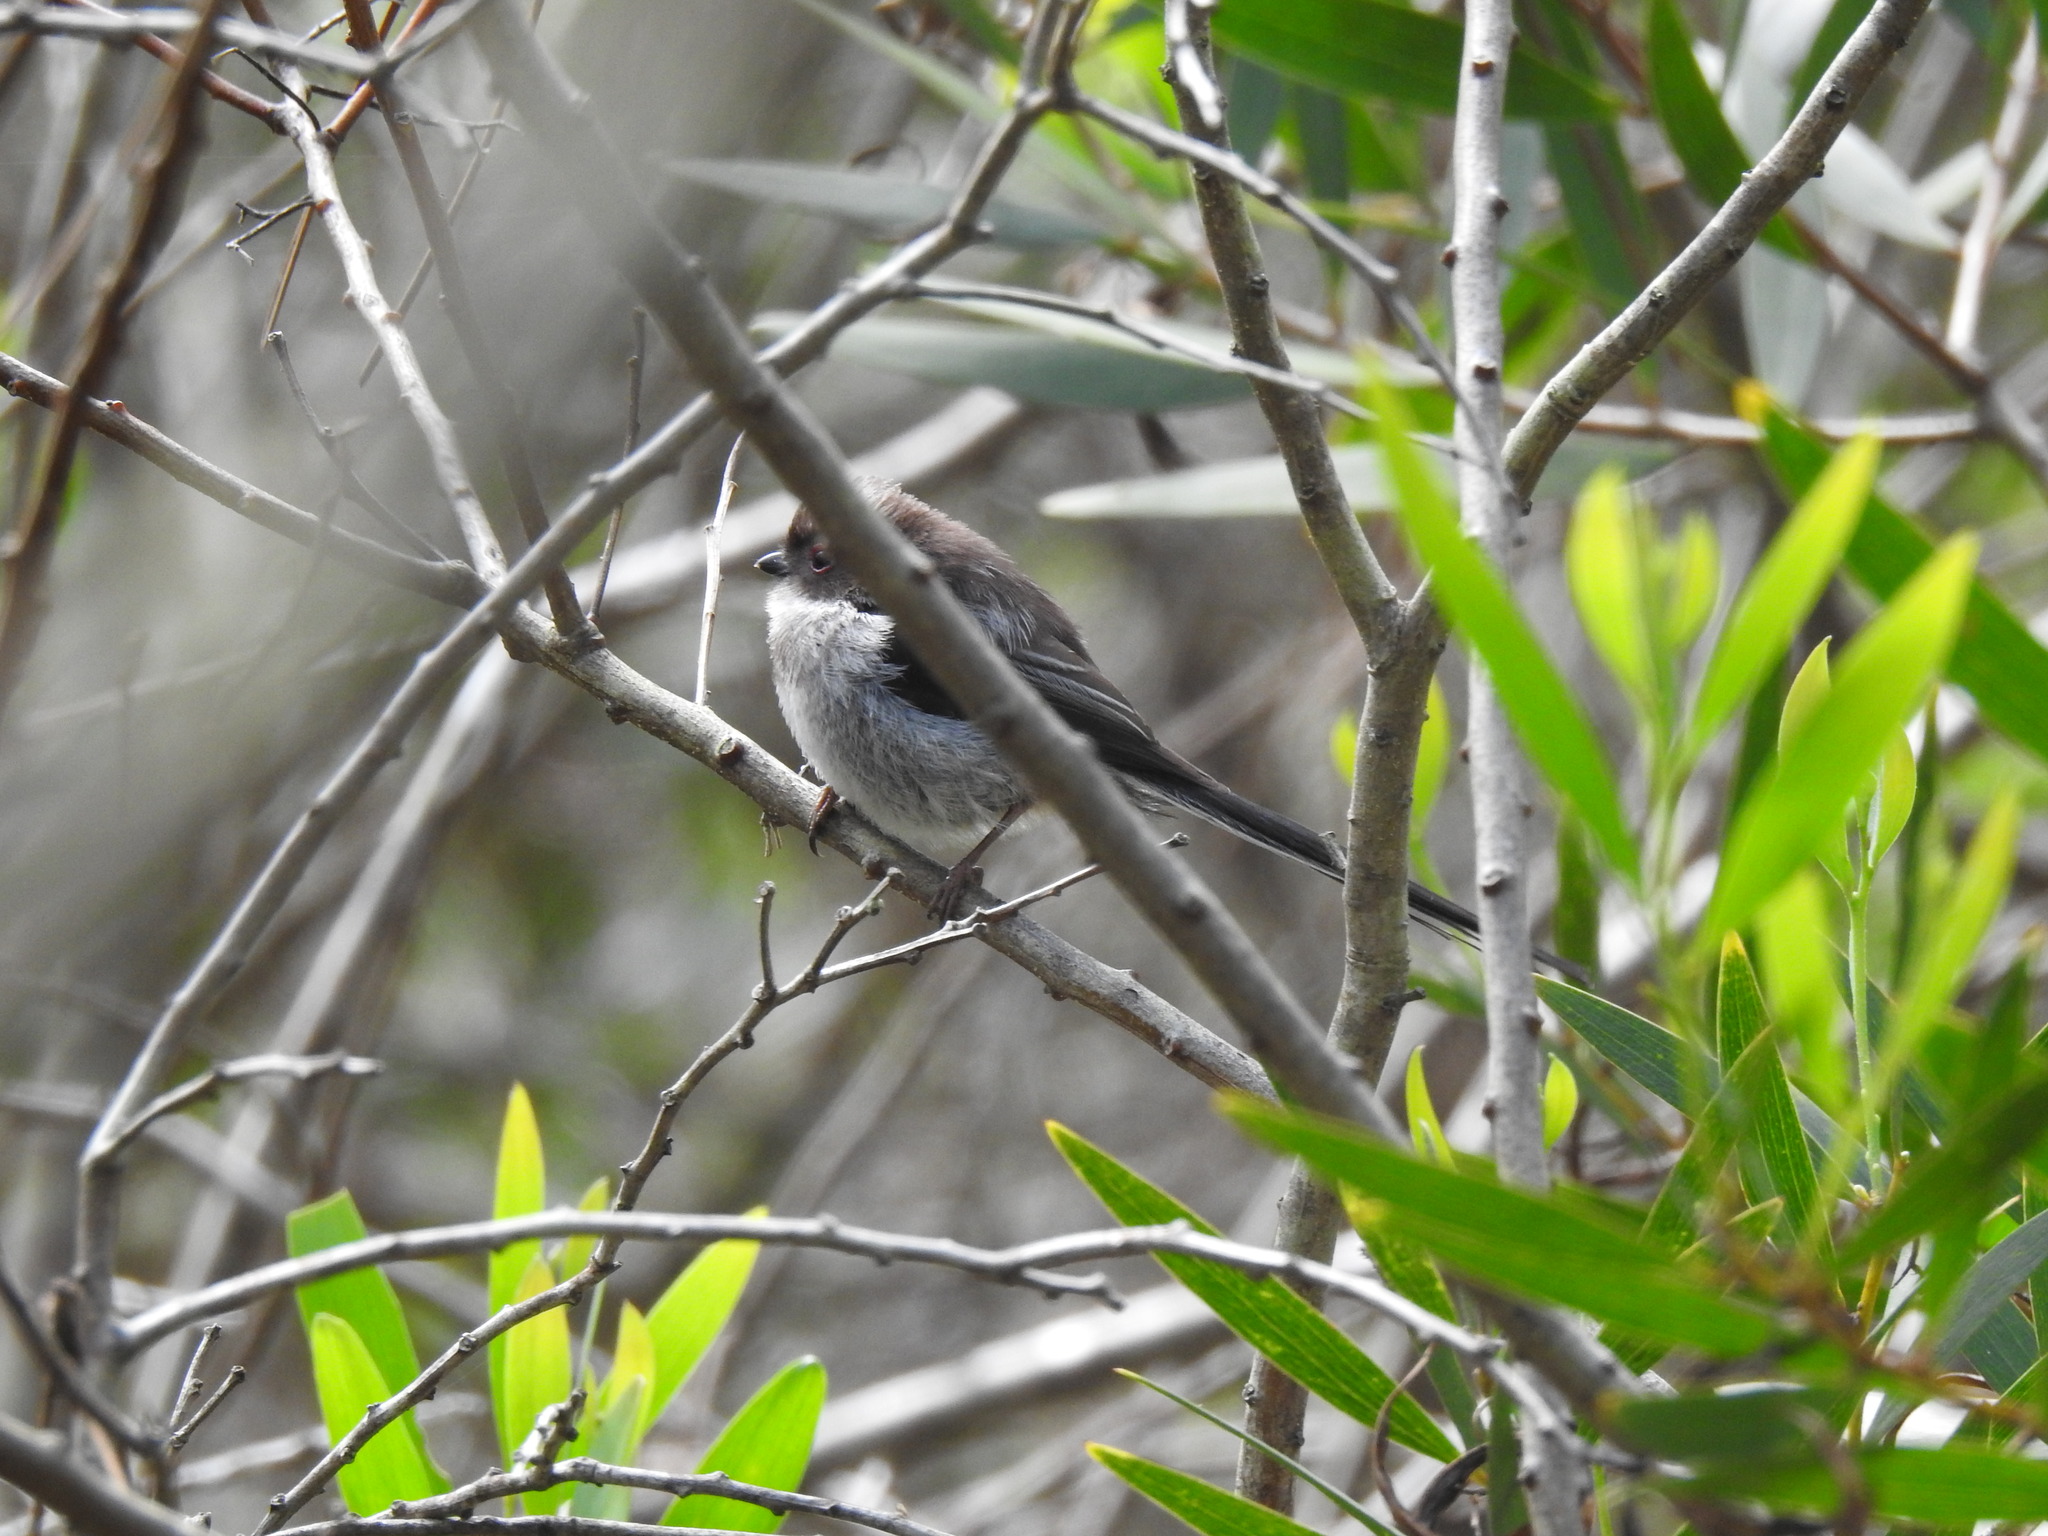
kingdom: Animalia
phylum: Chordata
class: Aves
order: Passeriformes
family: Aegithalidae
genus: Aegithalos
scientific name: Aegithalos caudatus
